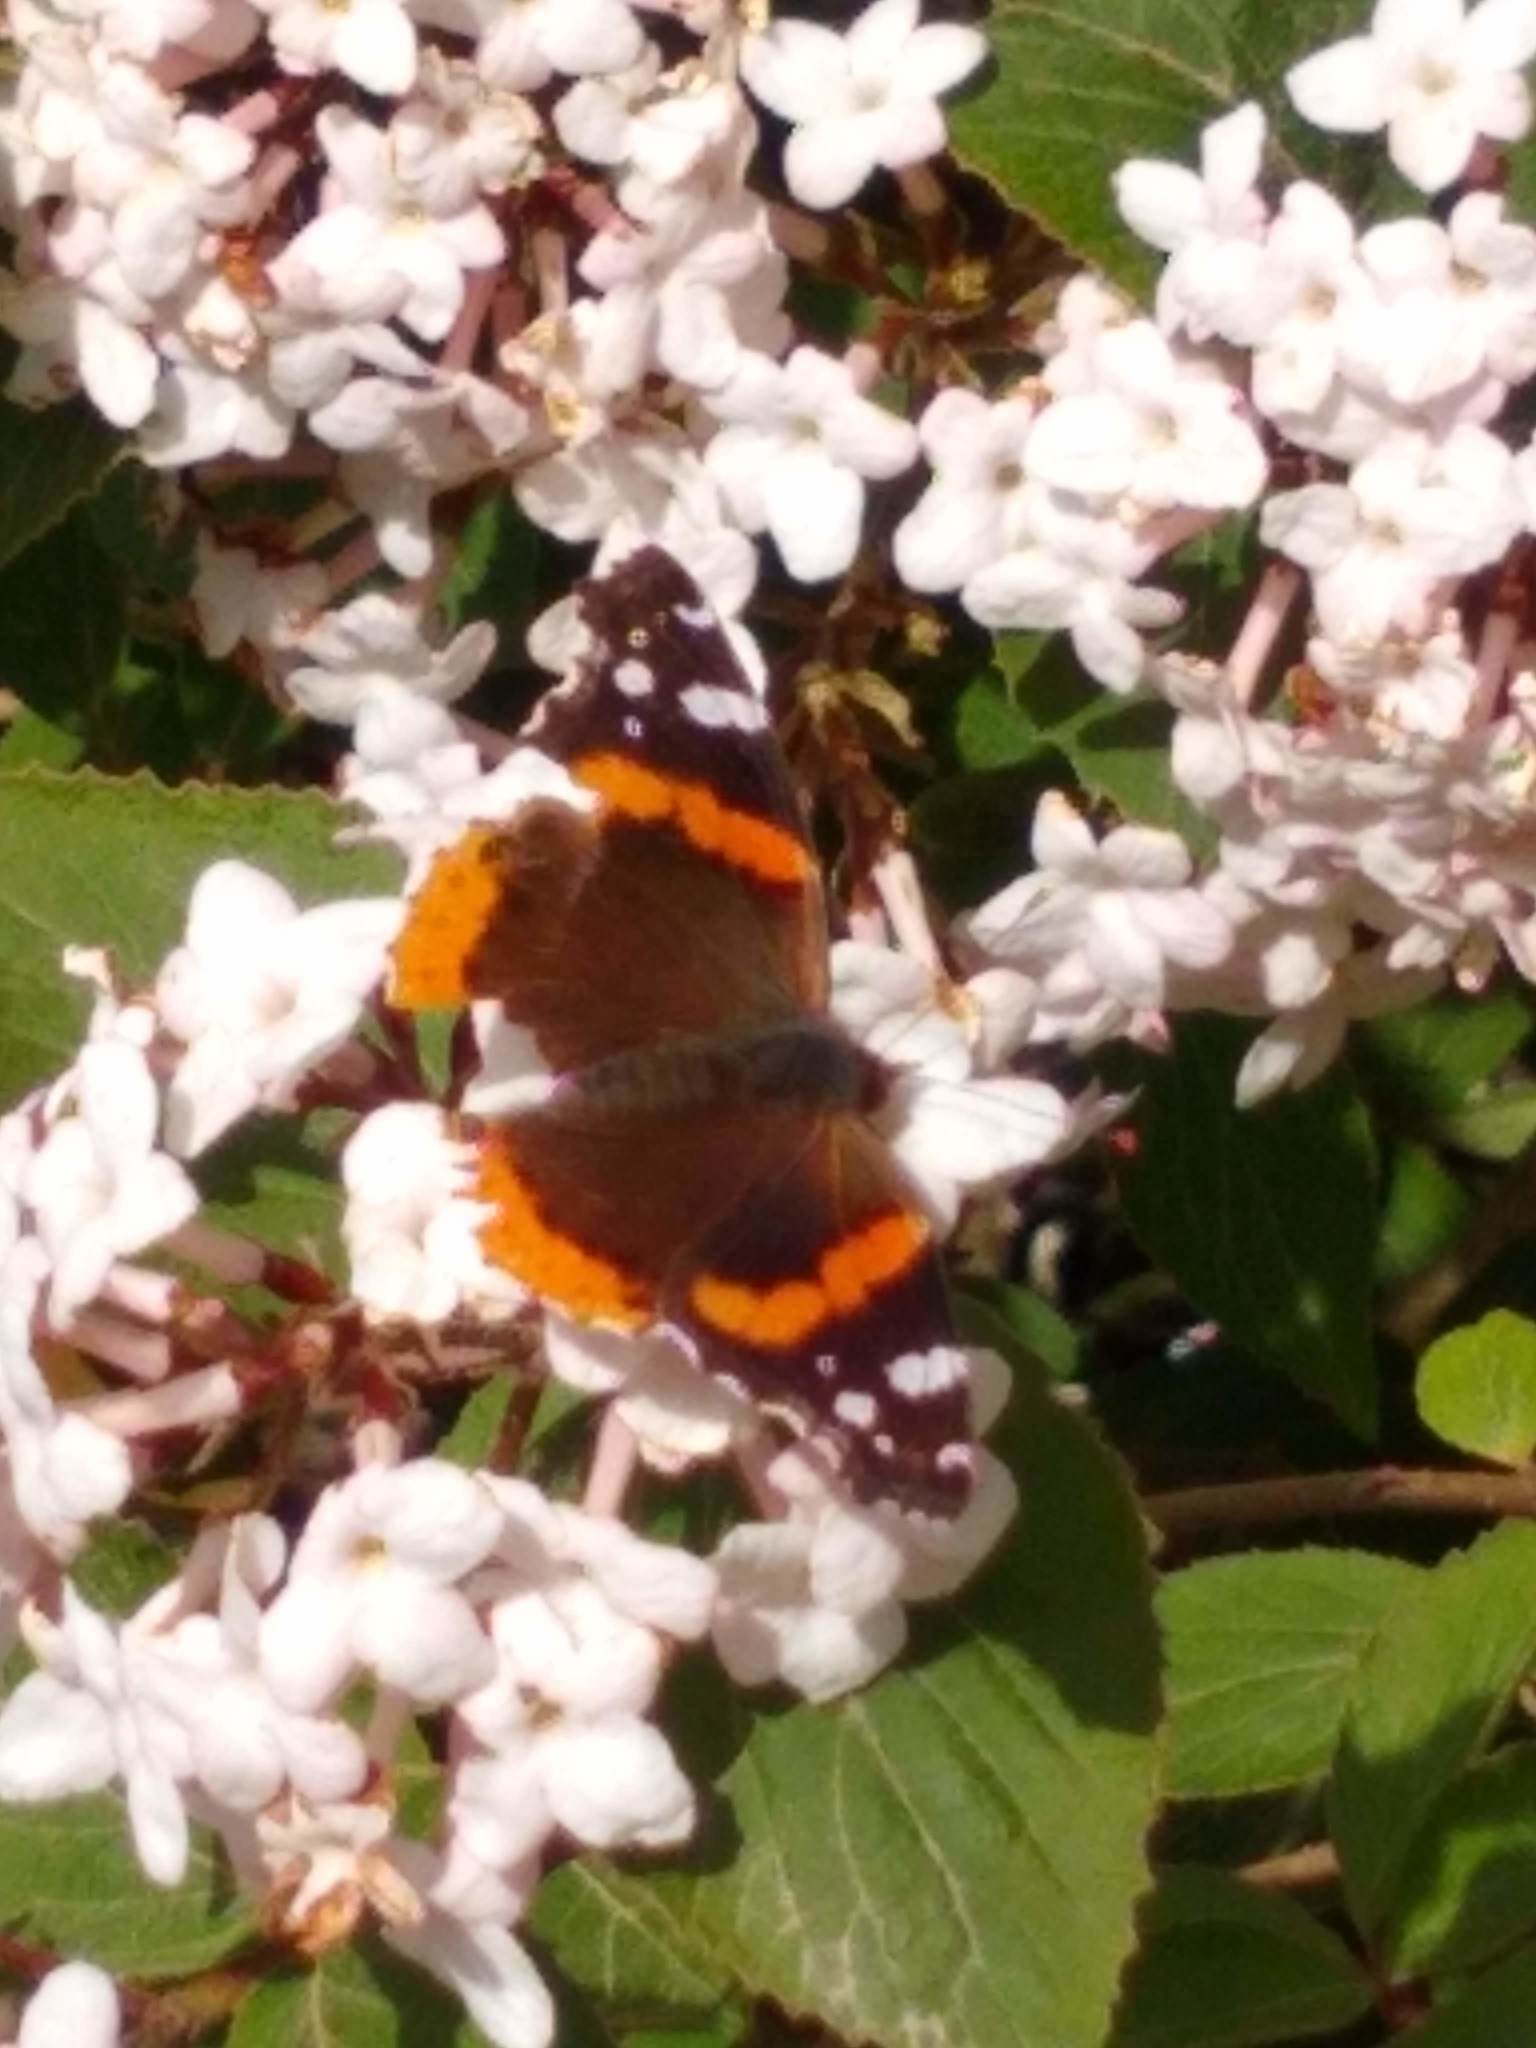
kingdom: Animalia
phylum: Arthropoda
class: Insecta
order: Lepidoptera
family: Nymphalidae
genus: Vanessa
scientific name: Vanessa atalanta
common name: Red admiral
